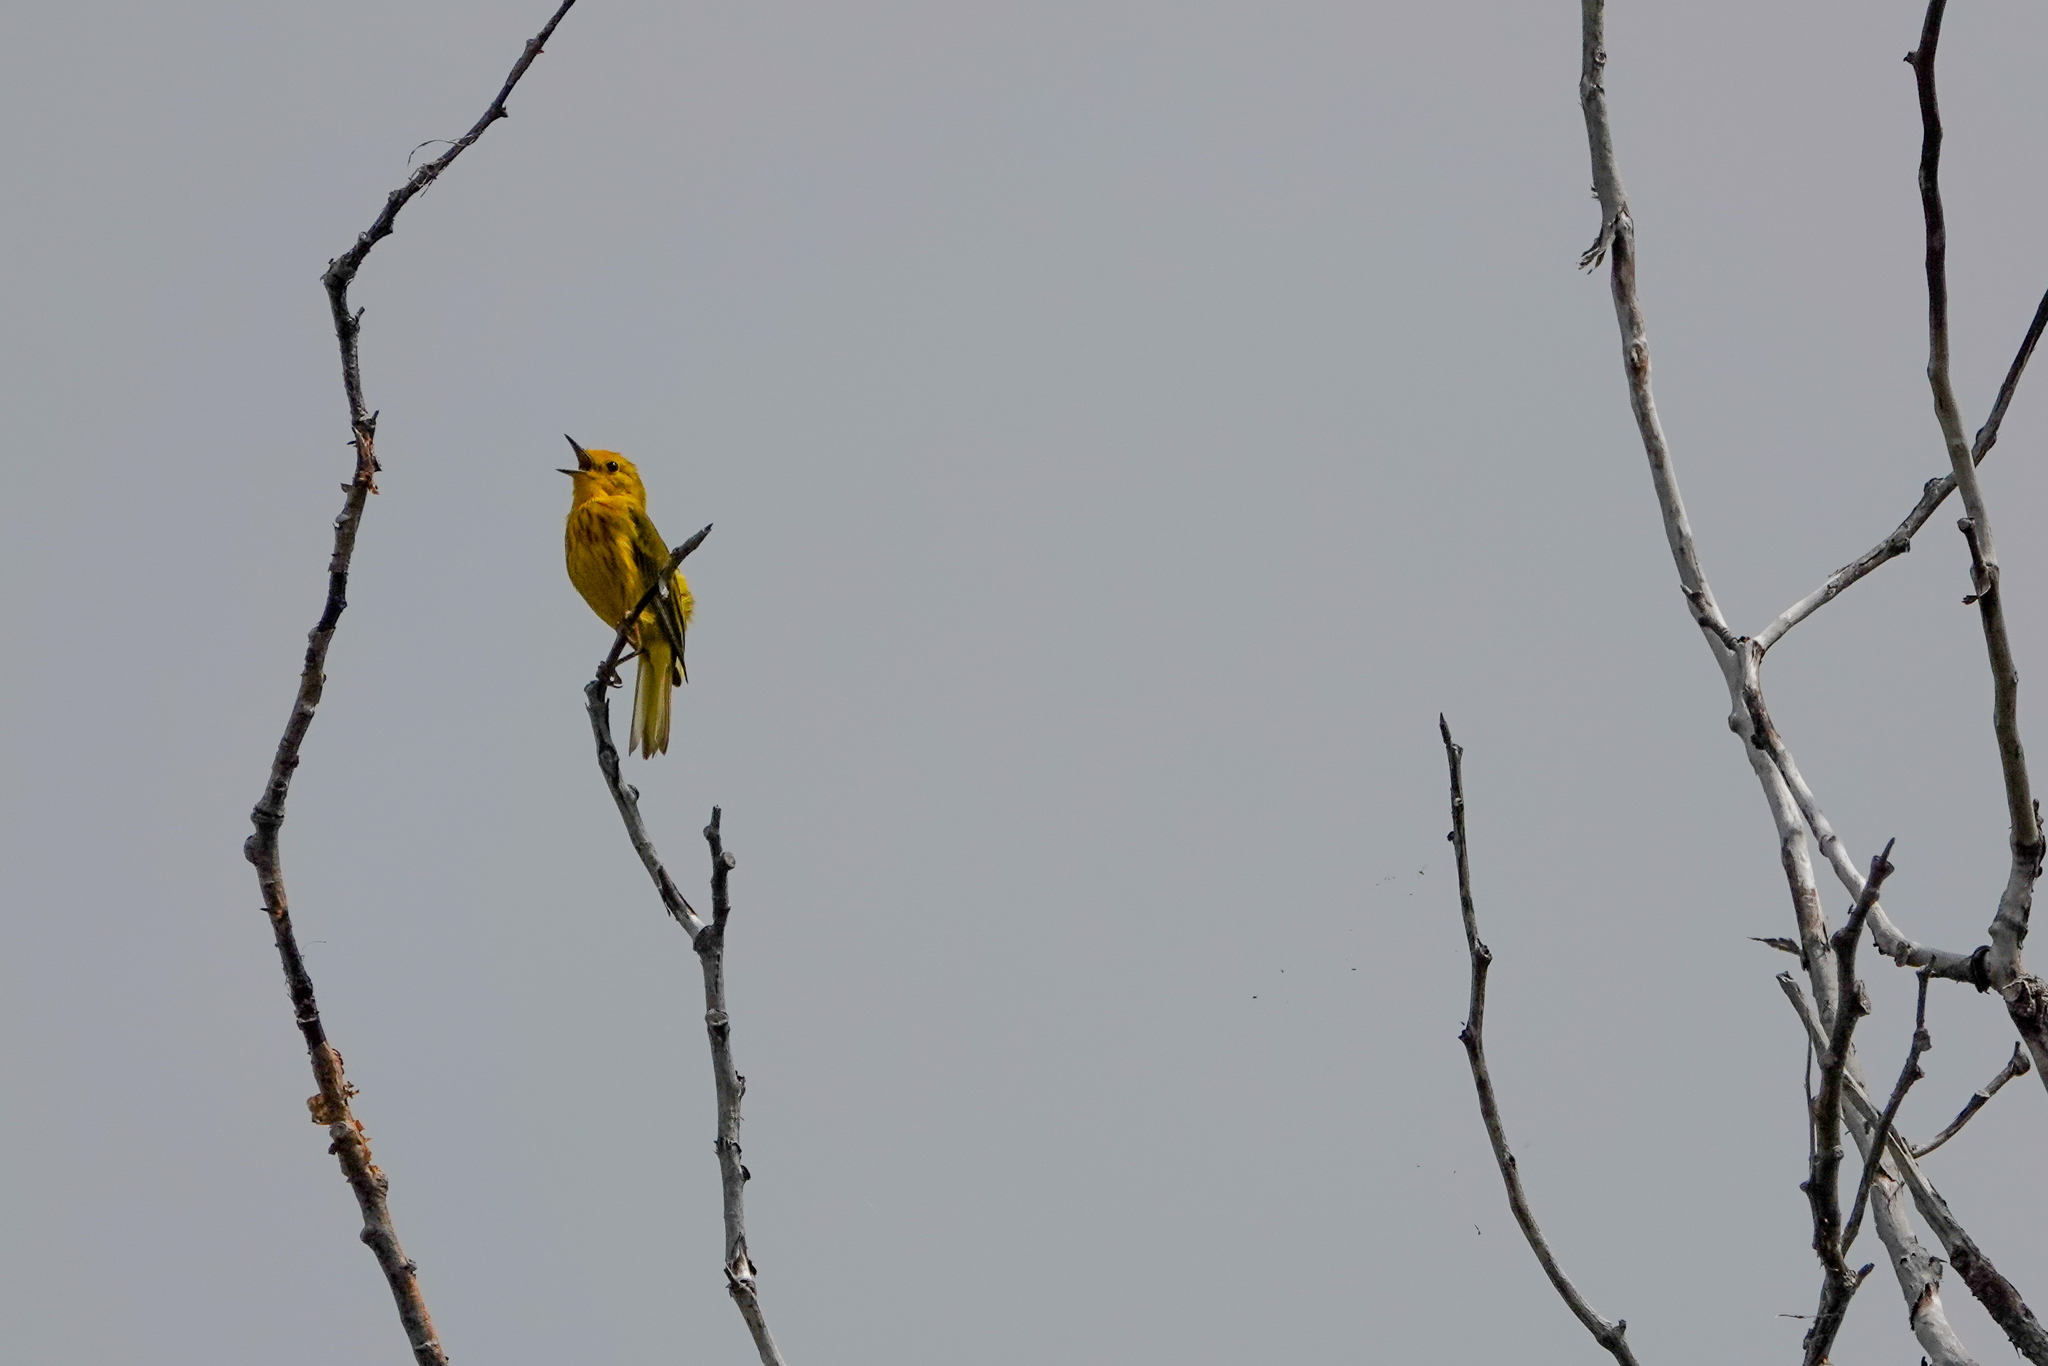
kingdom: Animalia
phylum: Chordata
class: Aves
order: Passeriformes
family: Parulidae
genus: Setophaga
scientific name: Setophaga petechia
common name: Yellow warbler
